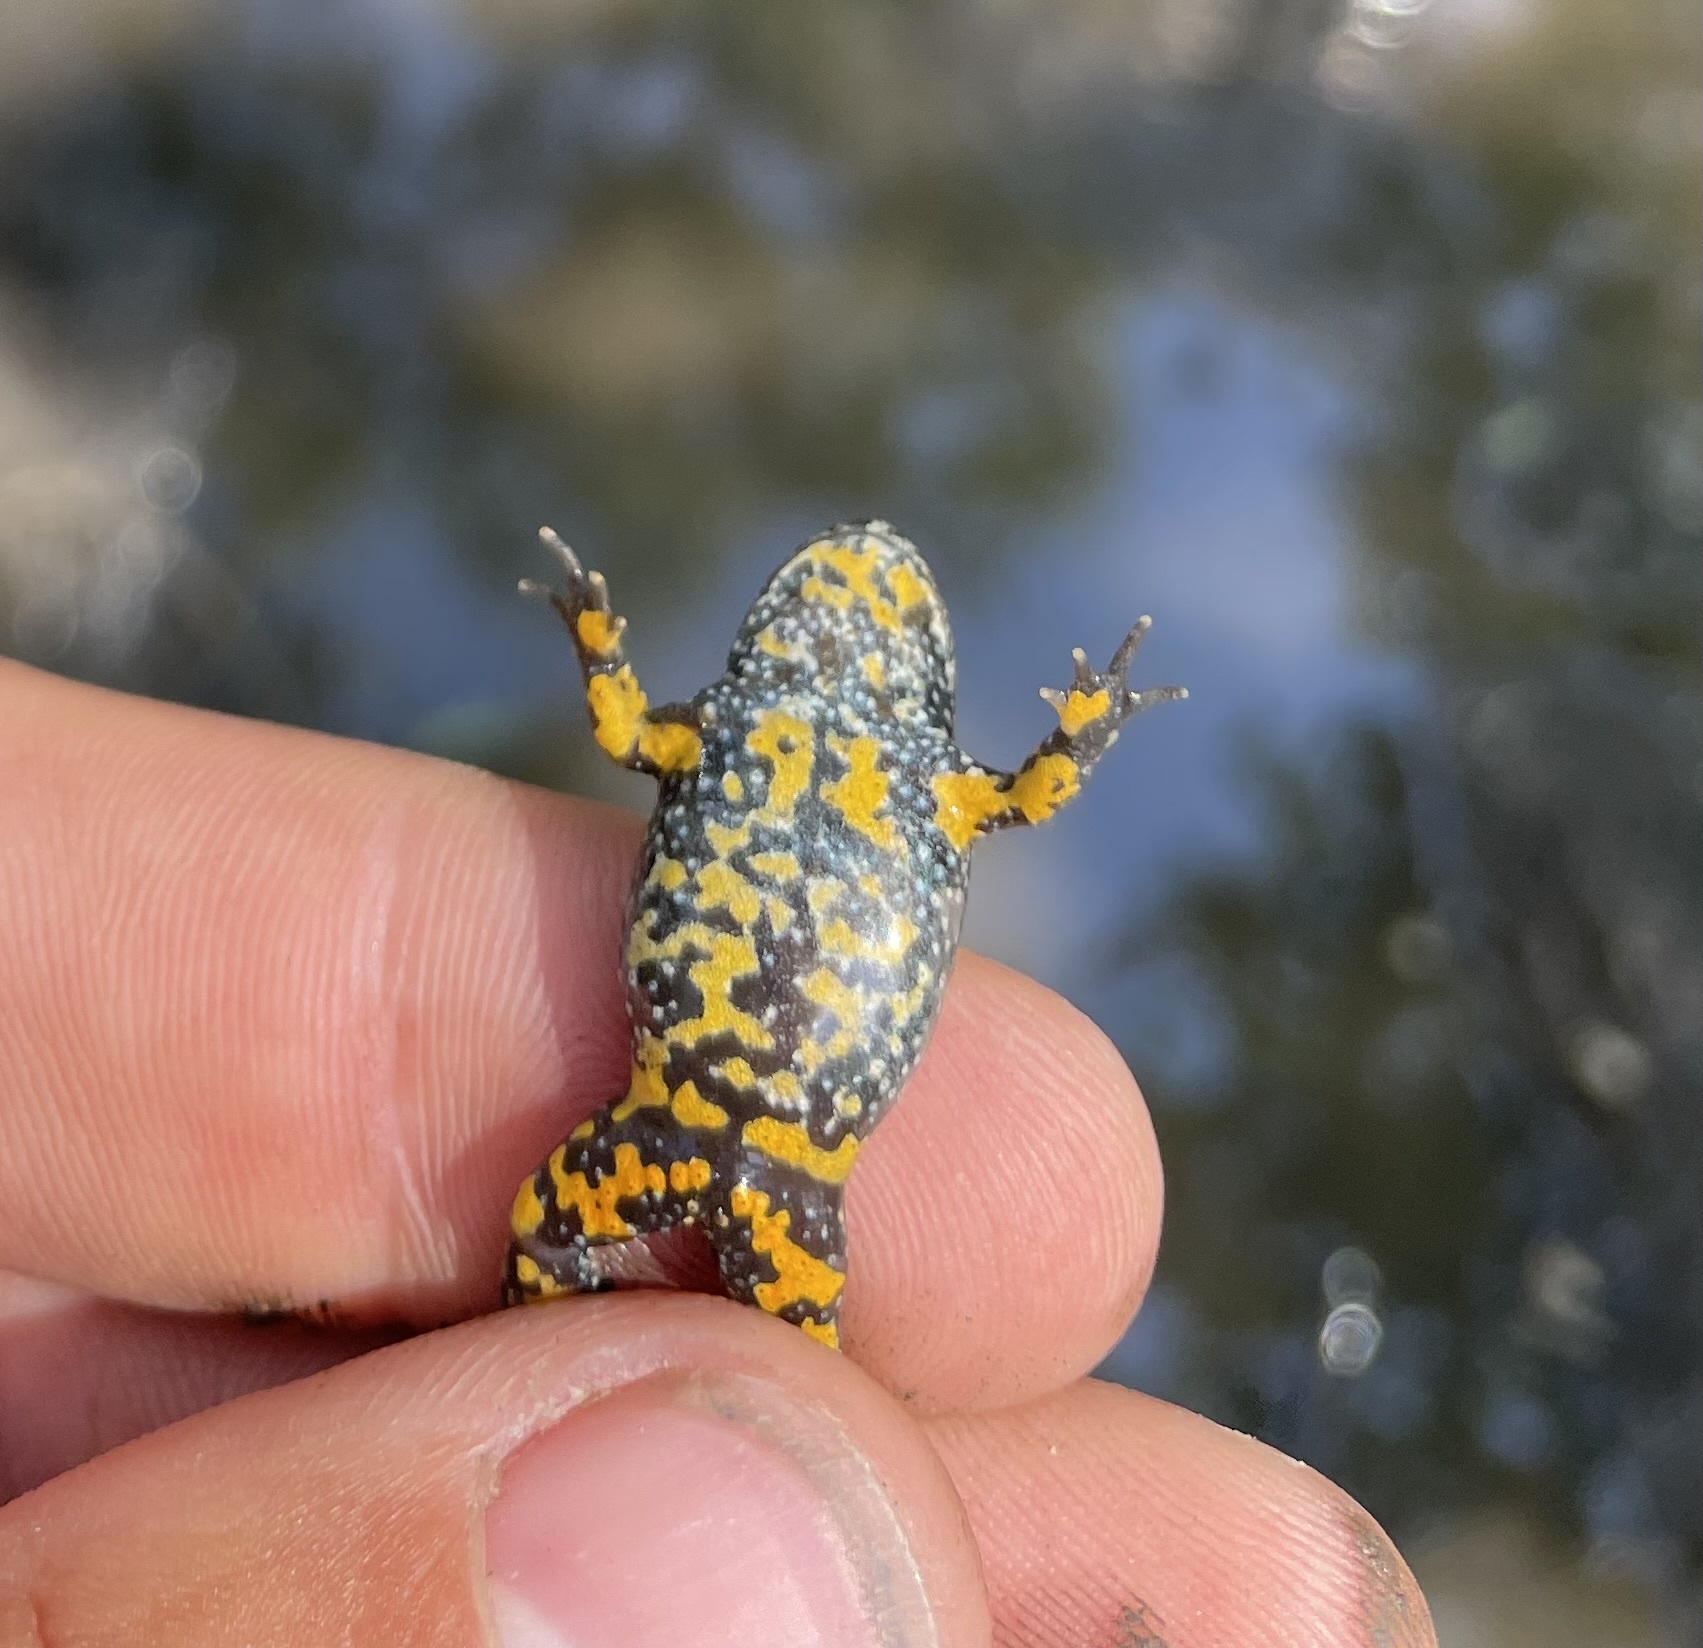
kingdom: Animalia
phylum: Chordata
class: Amphibia
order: Anura
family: Bombinatoridae
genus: Bombina
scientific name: Bombina bombina
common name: Fire-bellied toad
